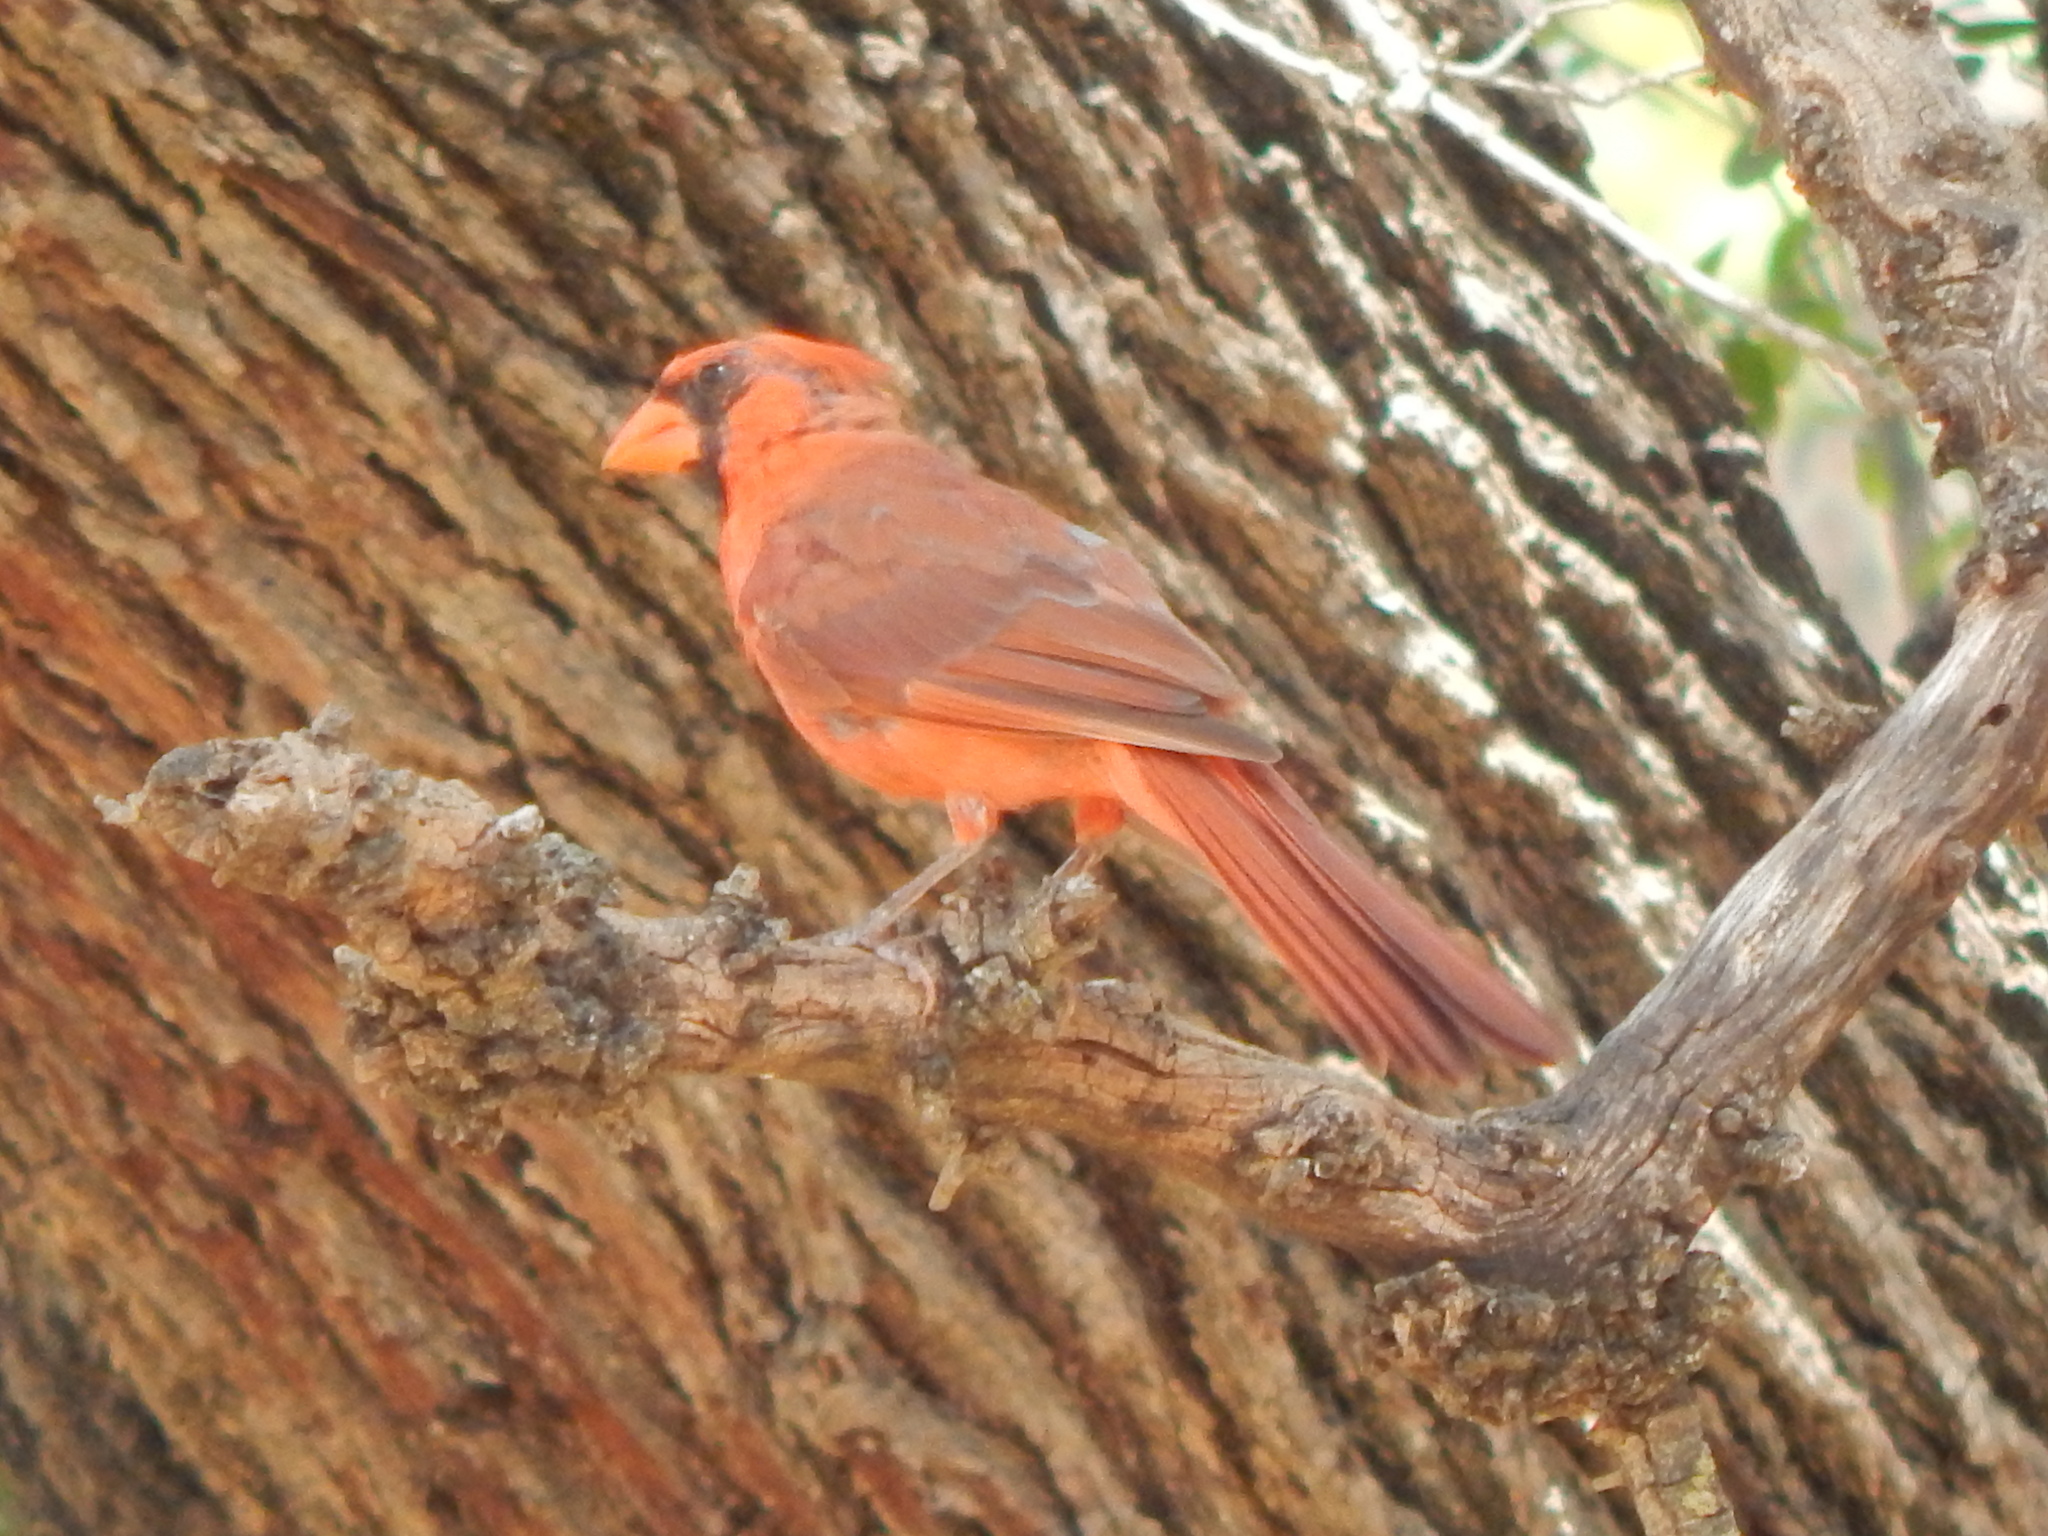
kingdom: Animalia
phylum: Chordata
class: Aves
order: Passeriformes
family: Cardinalidae
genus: Cardinalis
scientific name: Cardinalis cardinalis
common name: Northern cardinal
